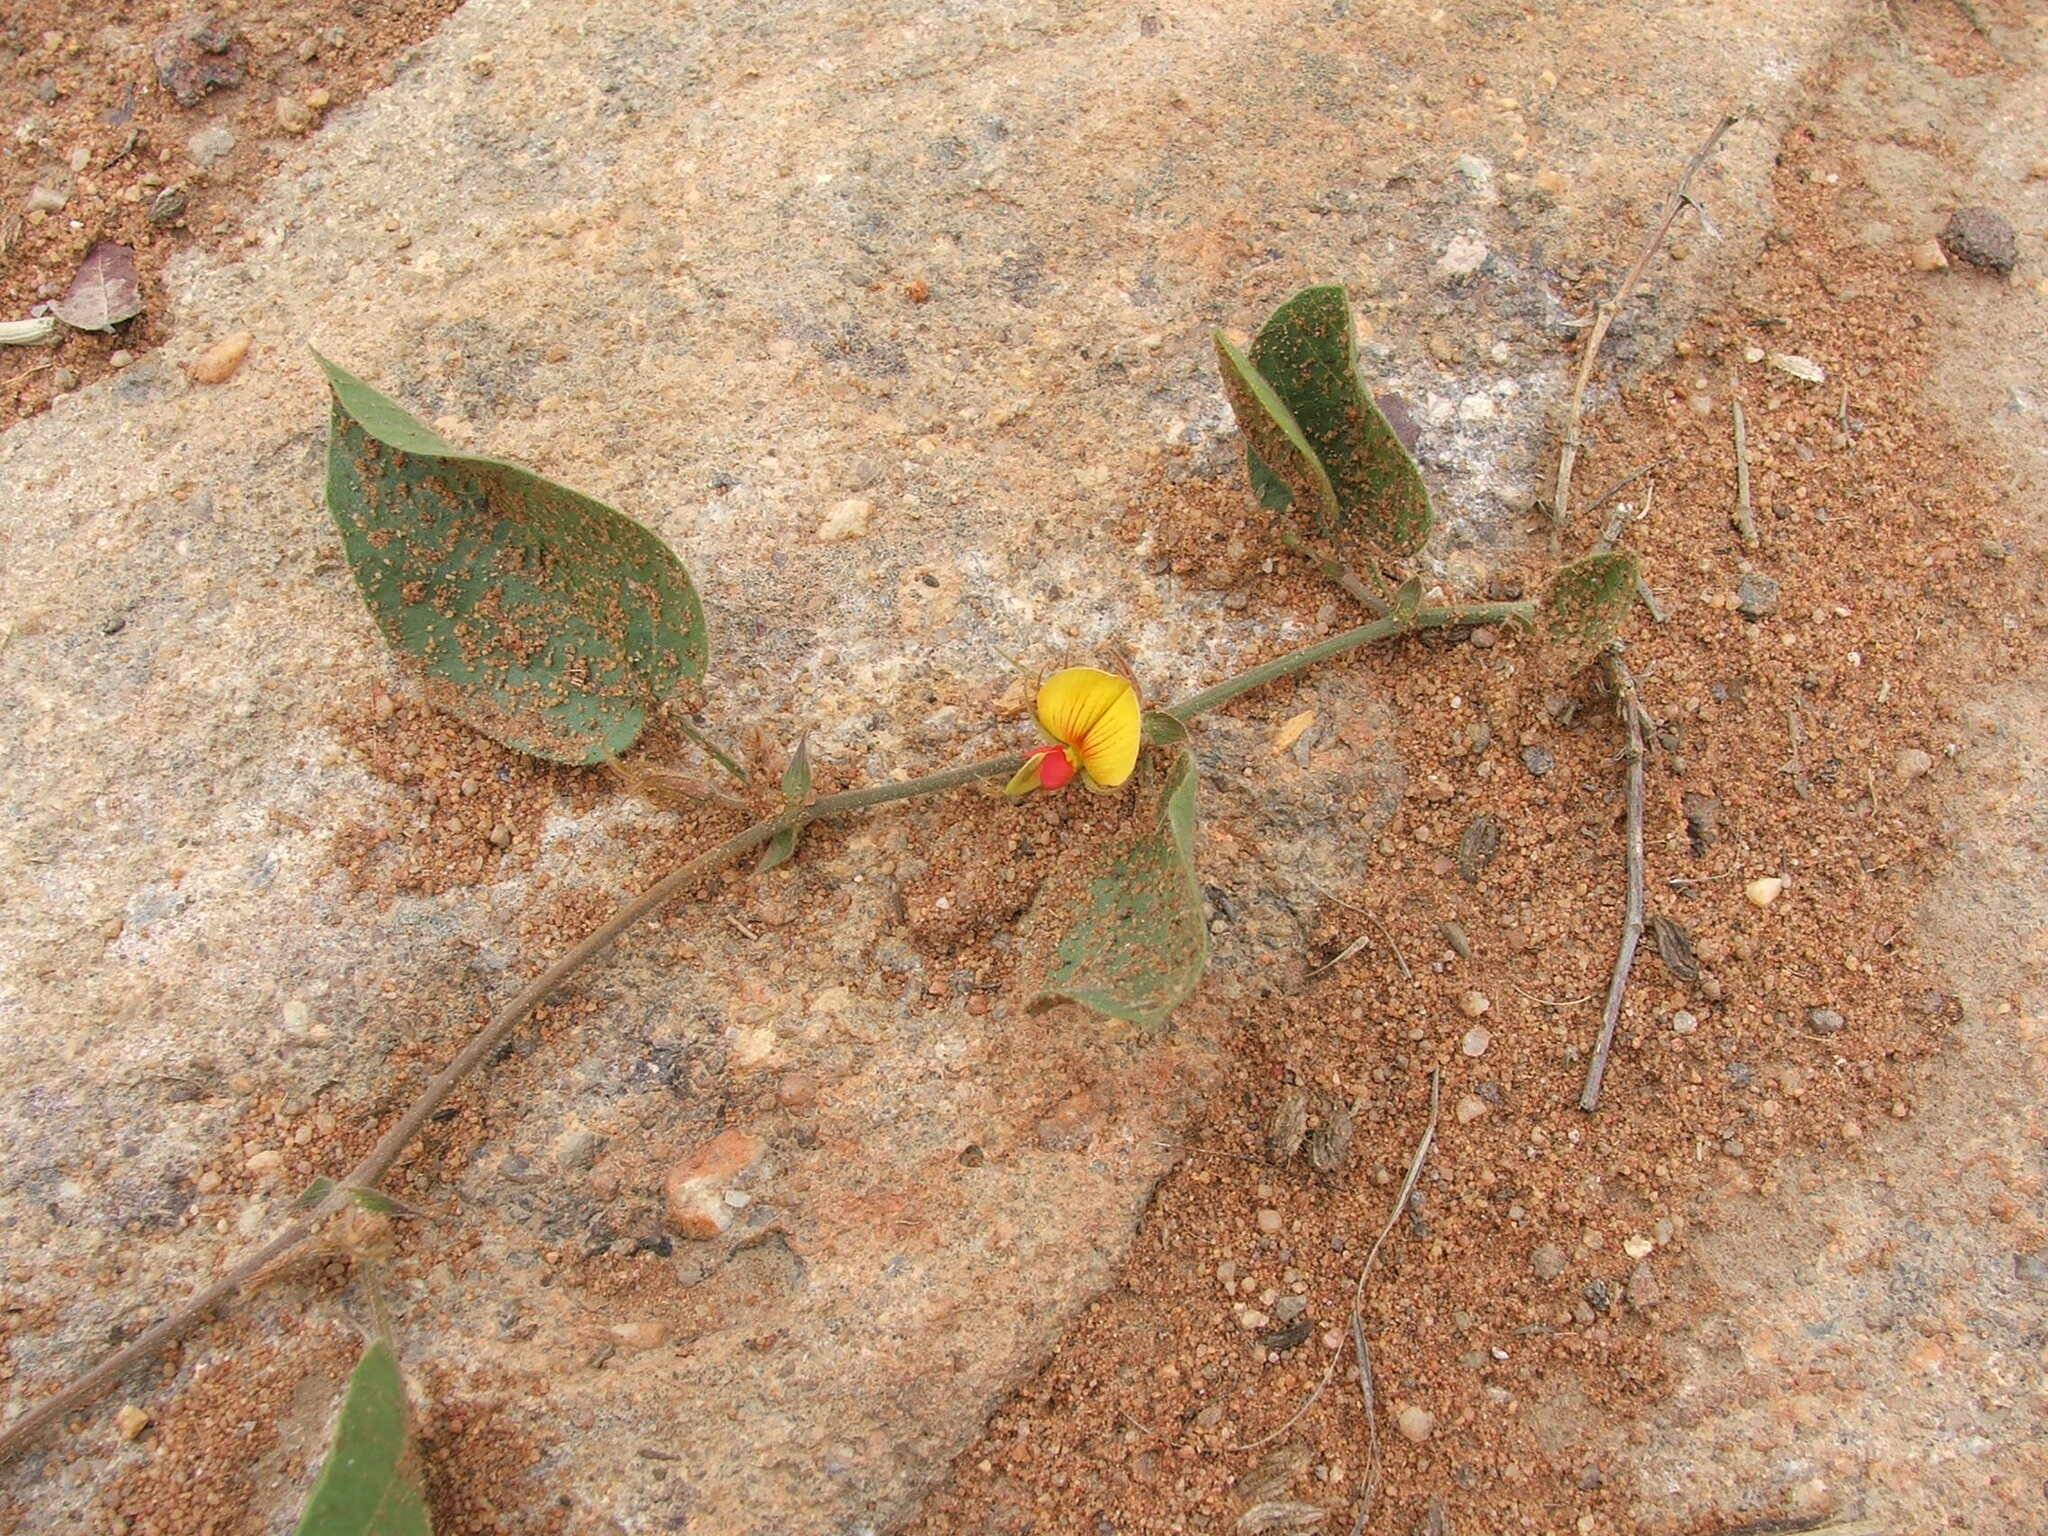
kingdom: Plantae
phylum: Tracheophyta
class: Magnoliopsida
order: Fabales
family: Fabaceae
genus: Rhynchosia
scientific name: Rhynchosia monophylla
